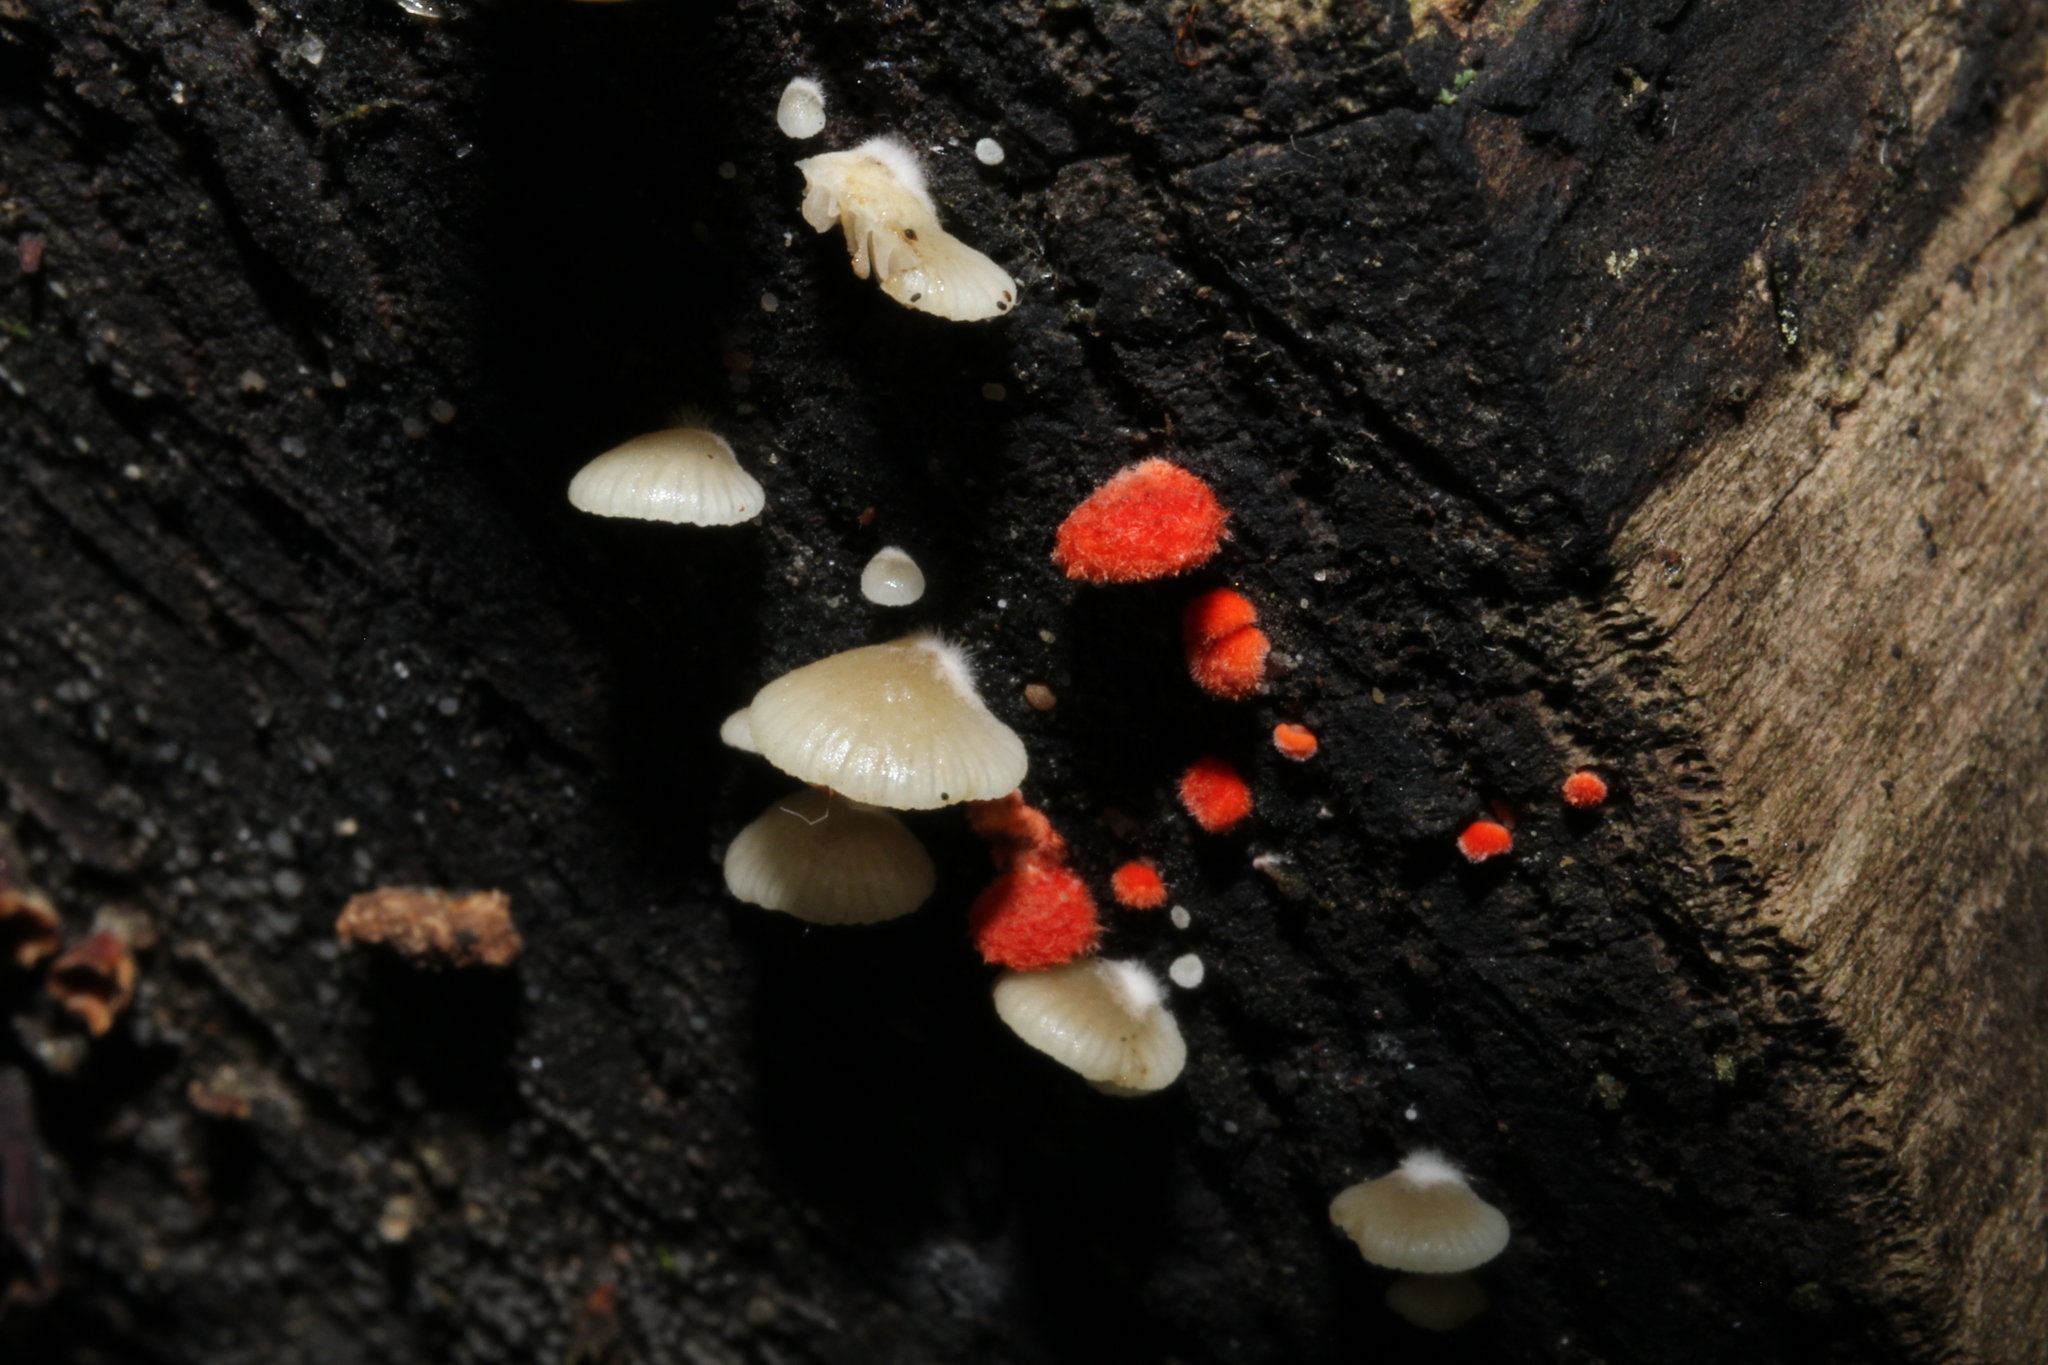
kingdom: Fungi
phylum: Basidiomycota
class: Agaricomycetes
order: Agaricales
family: Crepidotaceae
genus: Crepidotus
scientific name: Crepidotus cinnabarinus
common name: Cinnabar oysterling
